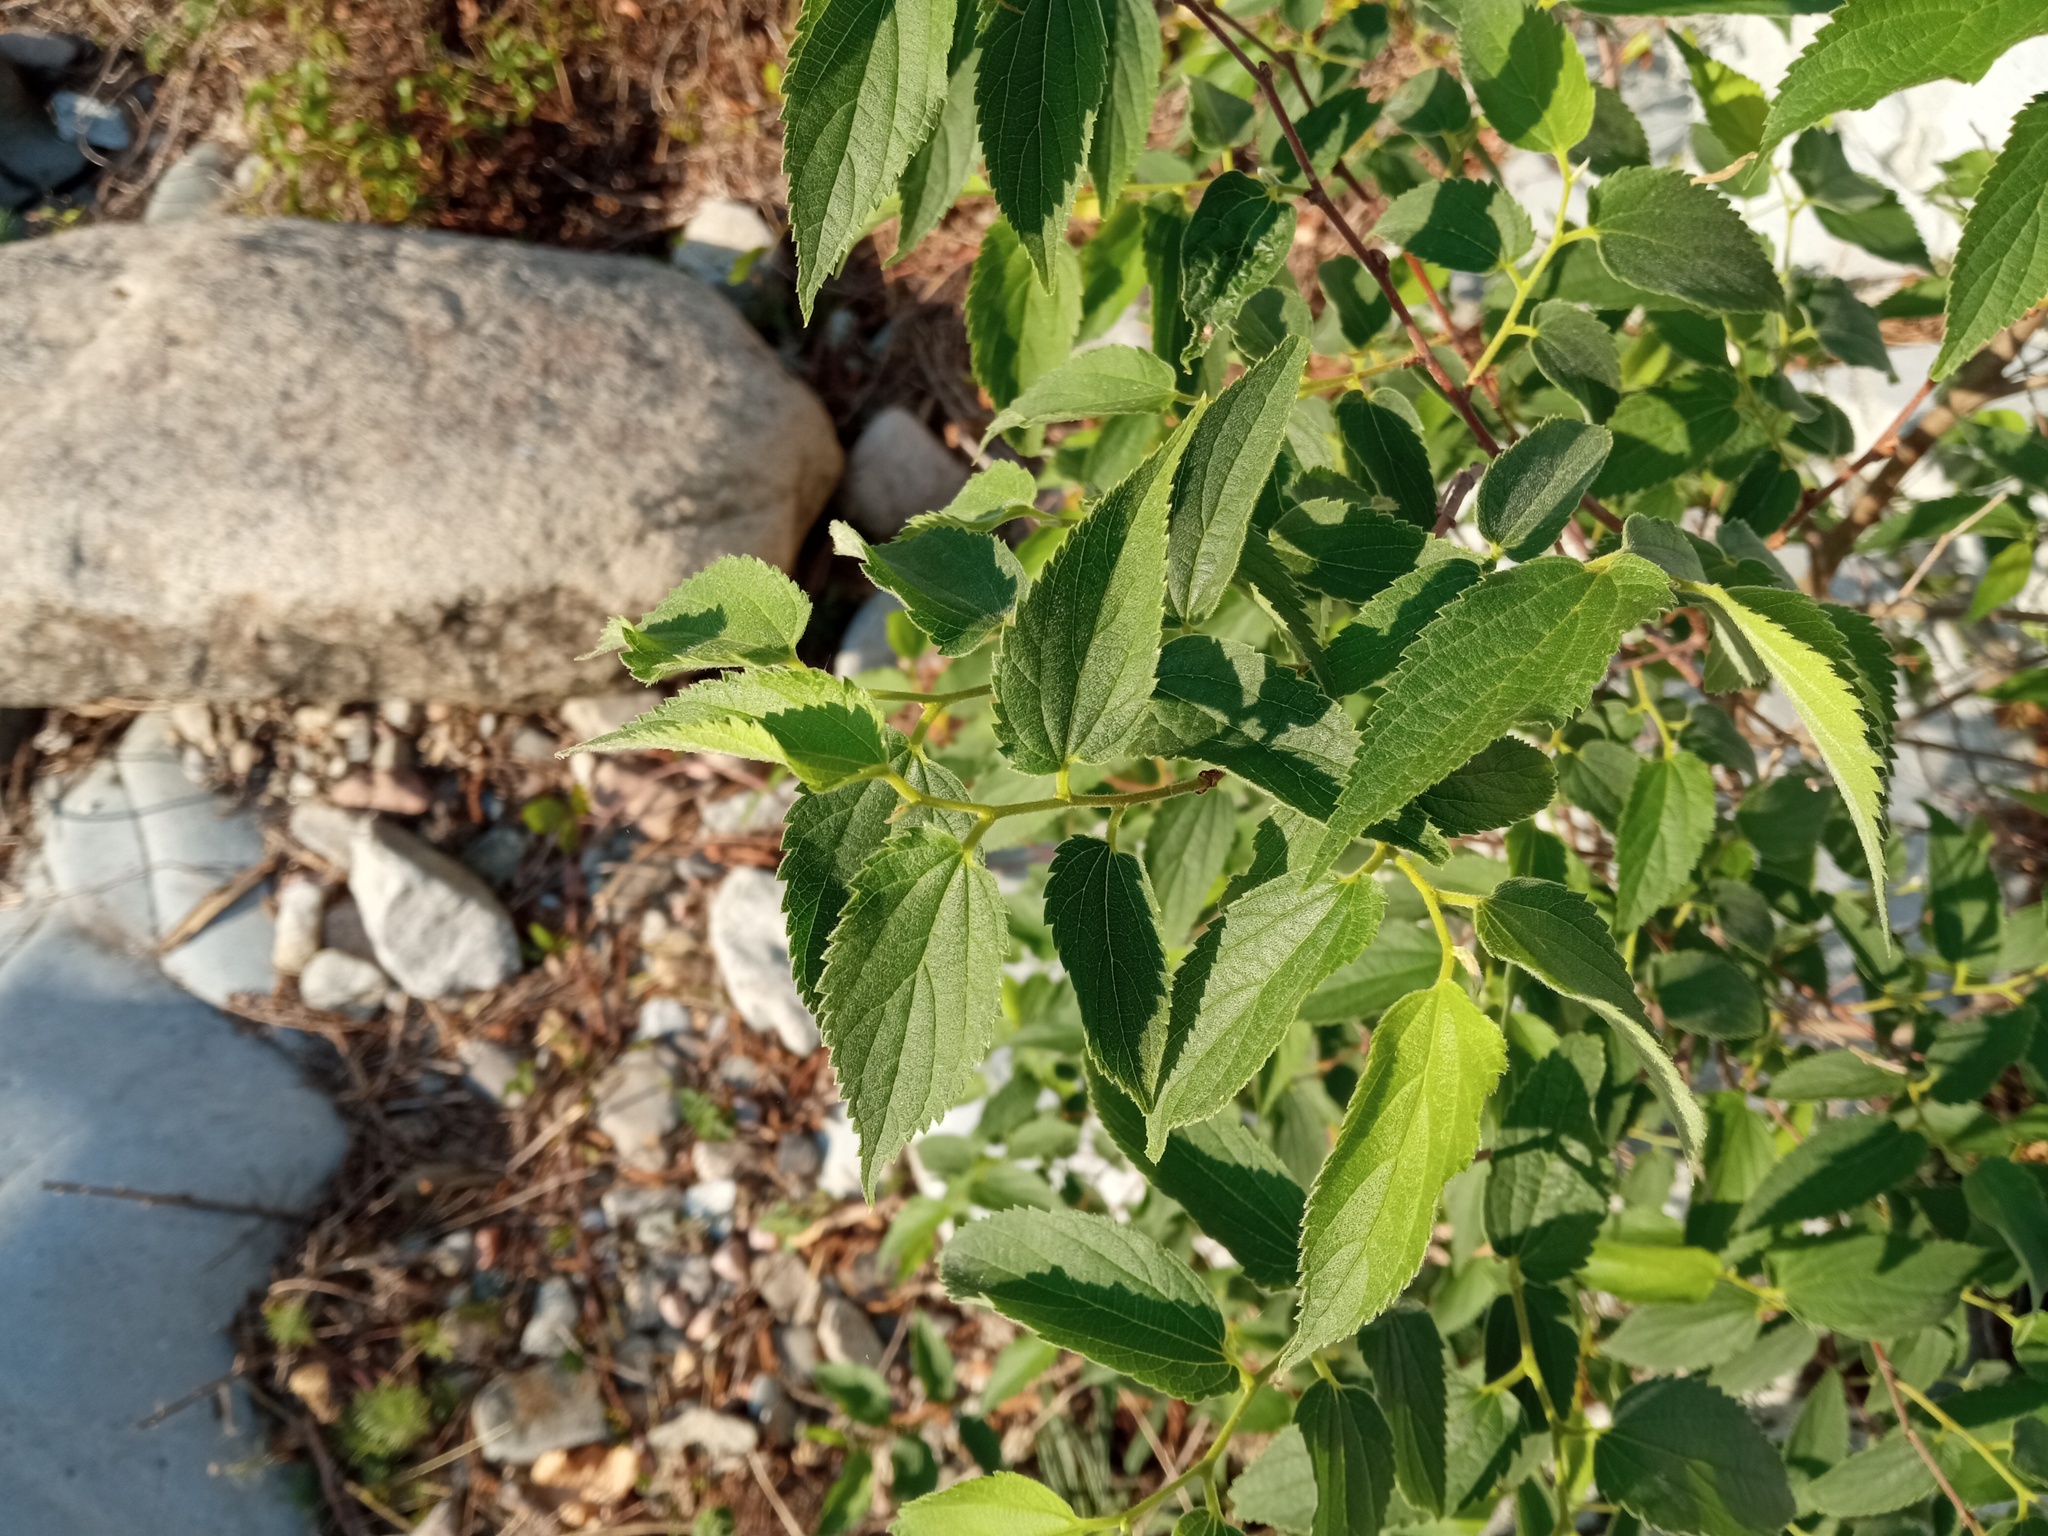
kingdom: Plantae
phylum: Tracheophyta
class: Magnoliopsida
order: Rosales
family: Cannabaceae
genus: Celtis
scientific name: Celtis australis
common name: European hackberry
